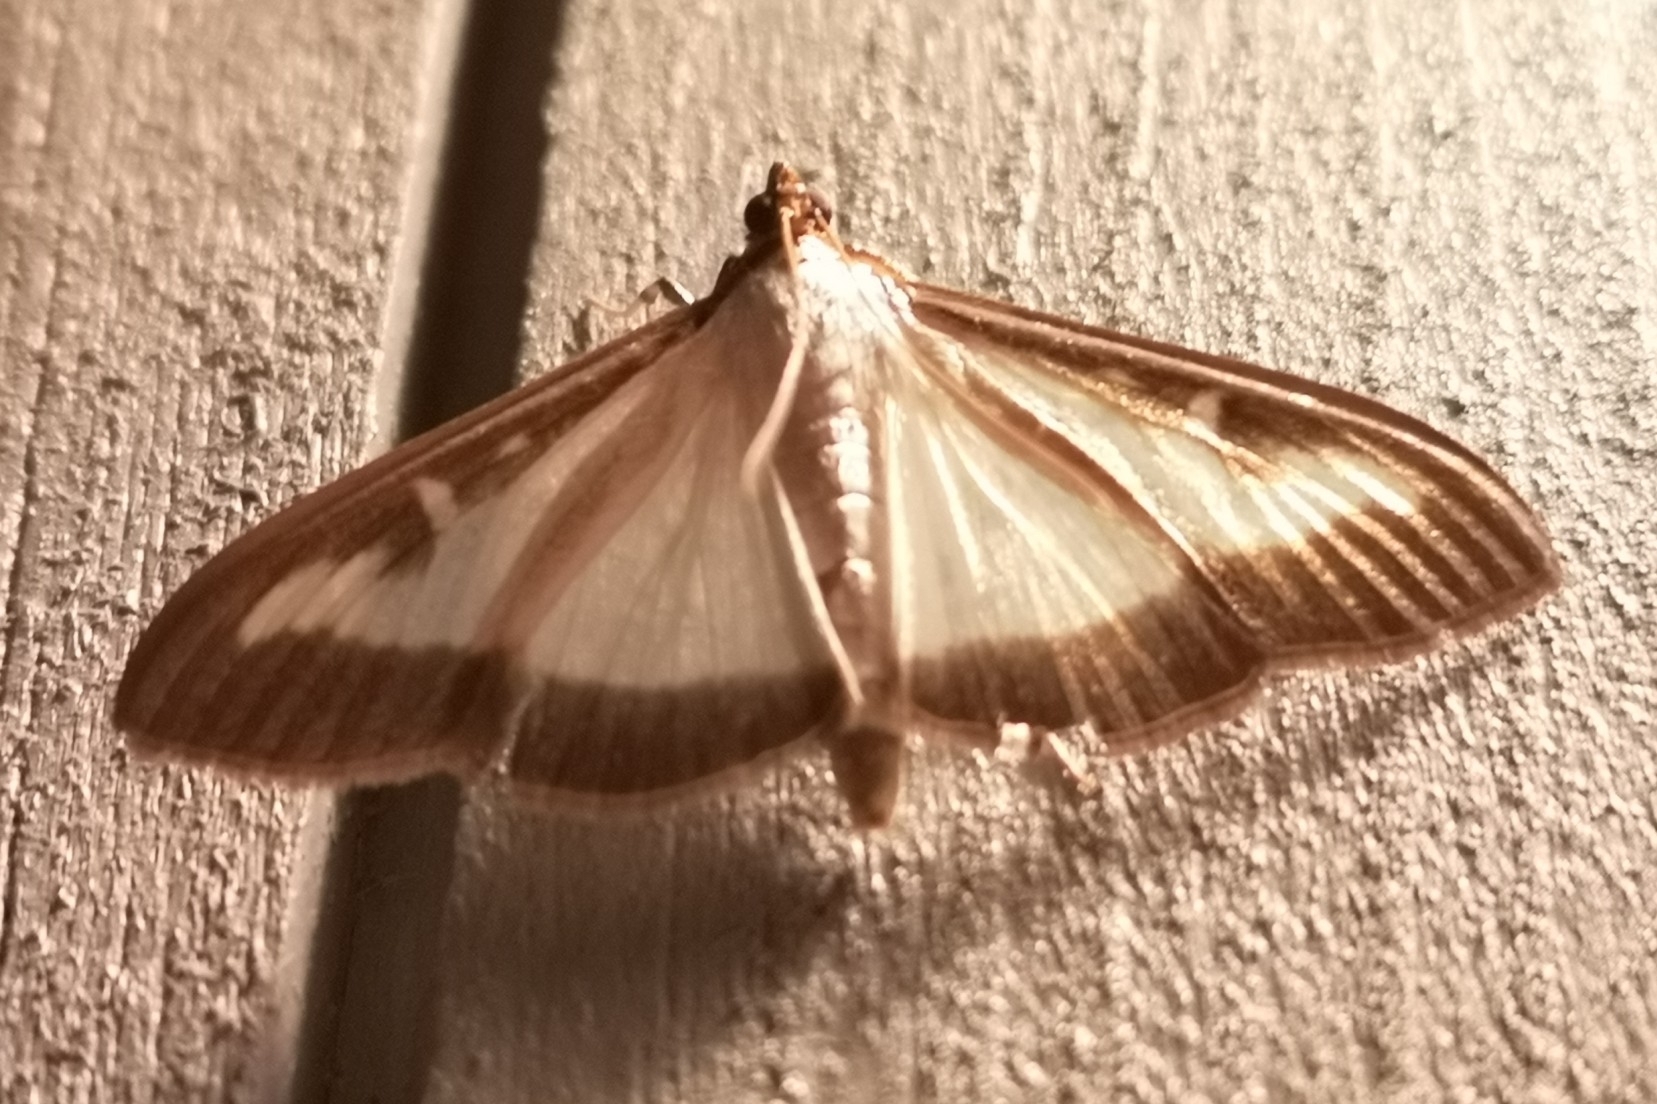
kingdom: Animalia
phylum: Arthropoda
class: Insecta
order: Lepidoptera
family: Crambidae
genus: Cydalima
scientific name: Cydalima perspectalis
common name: Box tree moth
